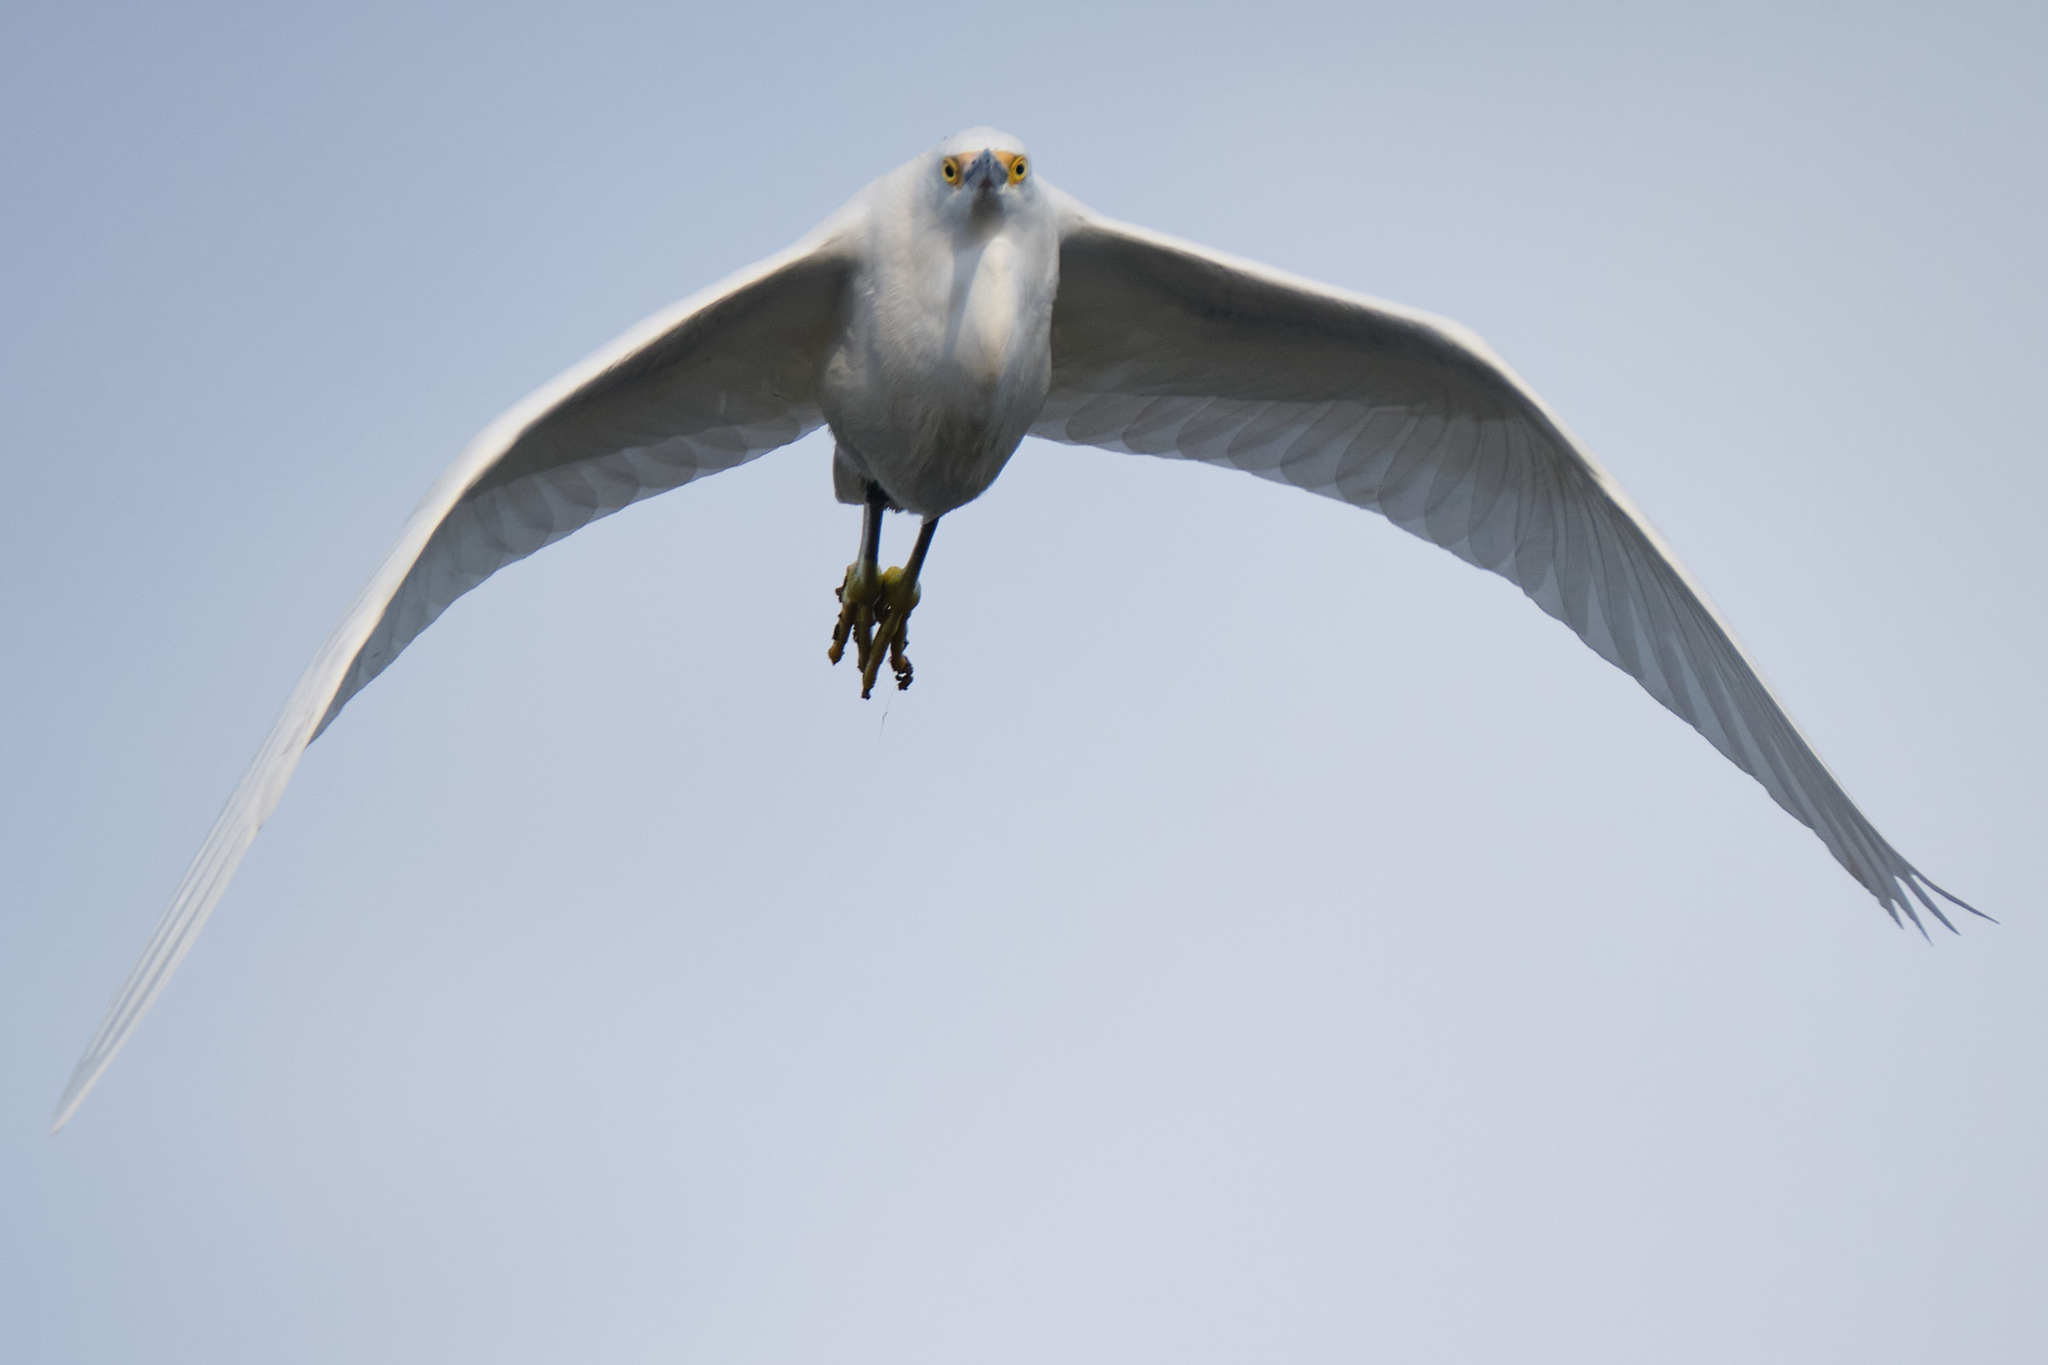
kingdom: Animalia
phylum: Chordata
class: Aves
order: Pelecaniformes
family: Ardeidae
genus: Egretta
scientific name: Egretta thula
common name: Snowy egret
